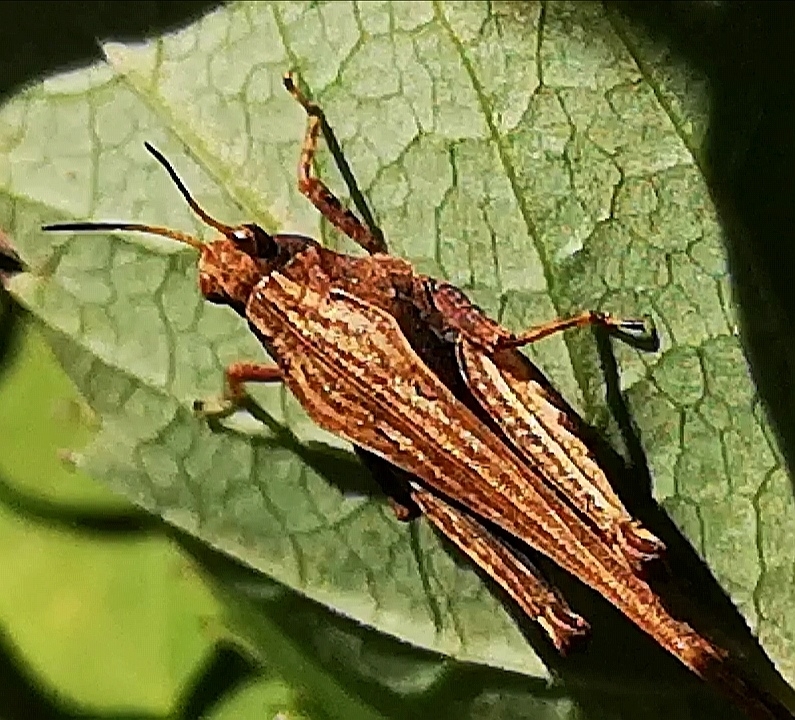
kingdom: Animalia
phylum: Arthropoda
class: Insecta
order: Orthoptera
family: Tetrigidae
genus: Tetrix
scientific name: Tetrix subulata
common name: Slender ground-hopper
